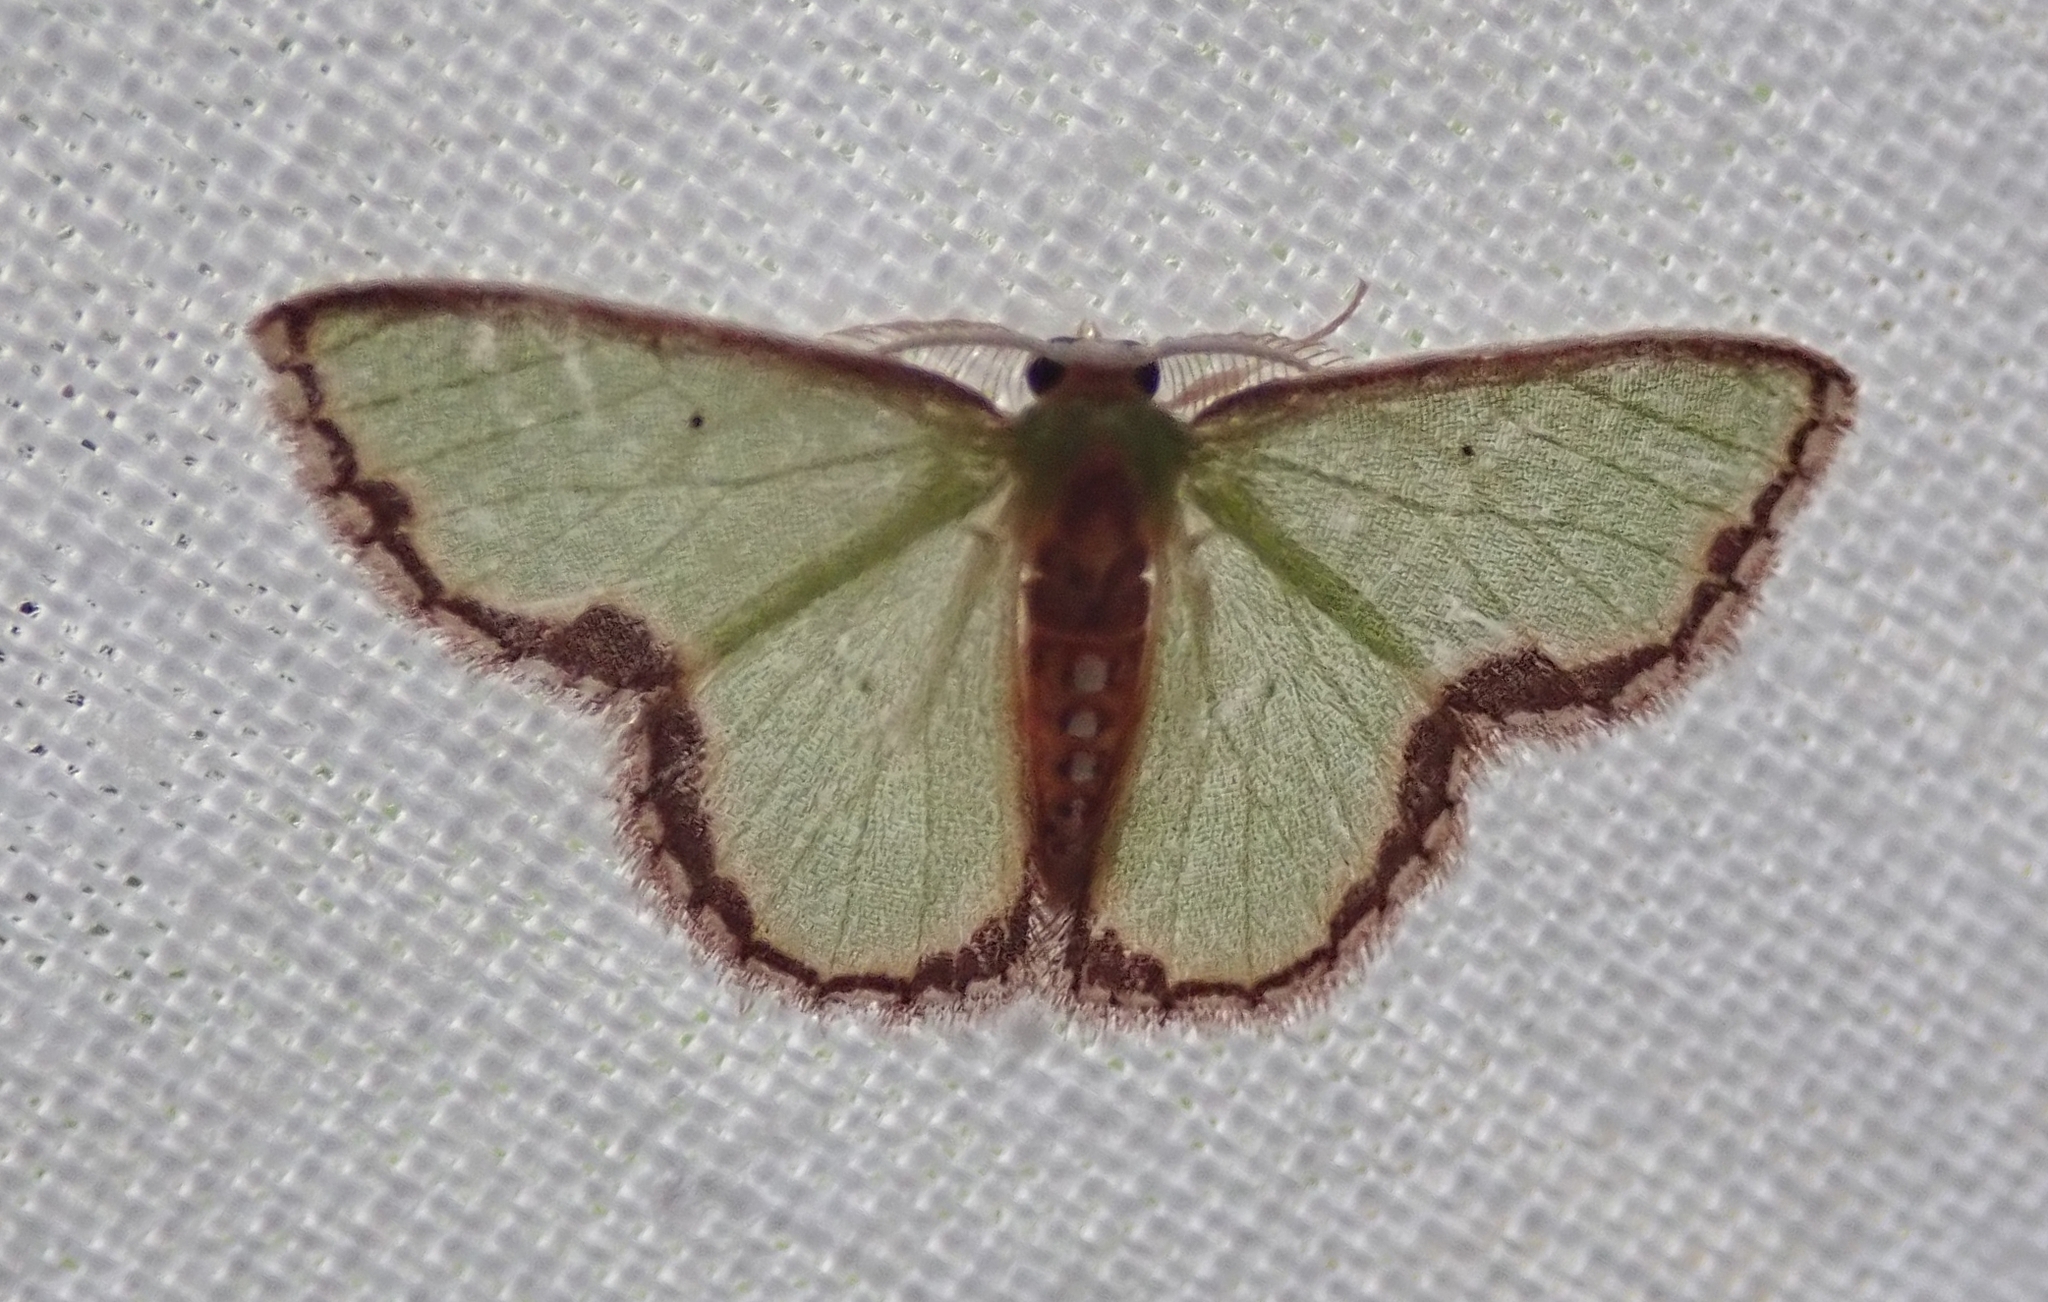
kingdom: Animalia
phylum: Arthropoda
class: Insecta
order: Lepidoptera
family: Geometridae
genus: Synchlora
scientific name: Synchlora astraeoides
